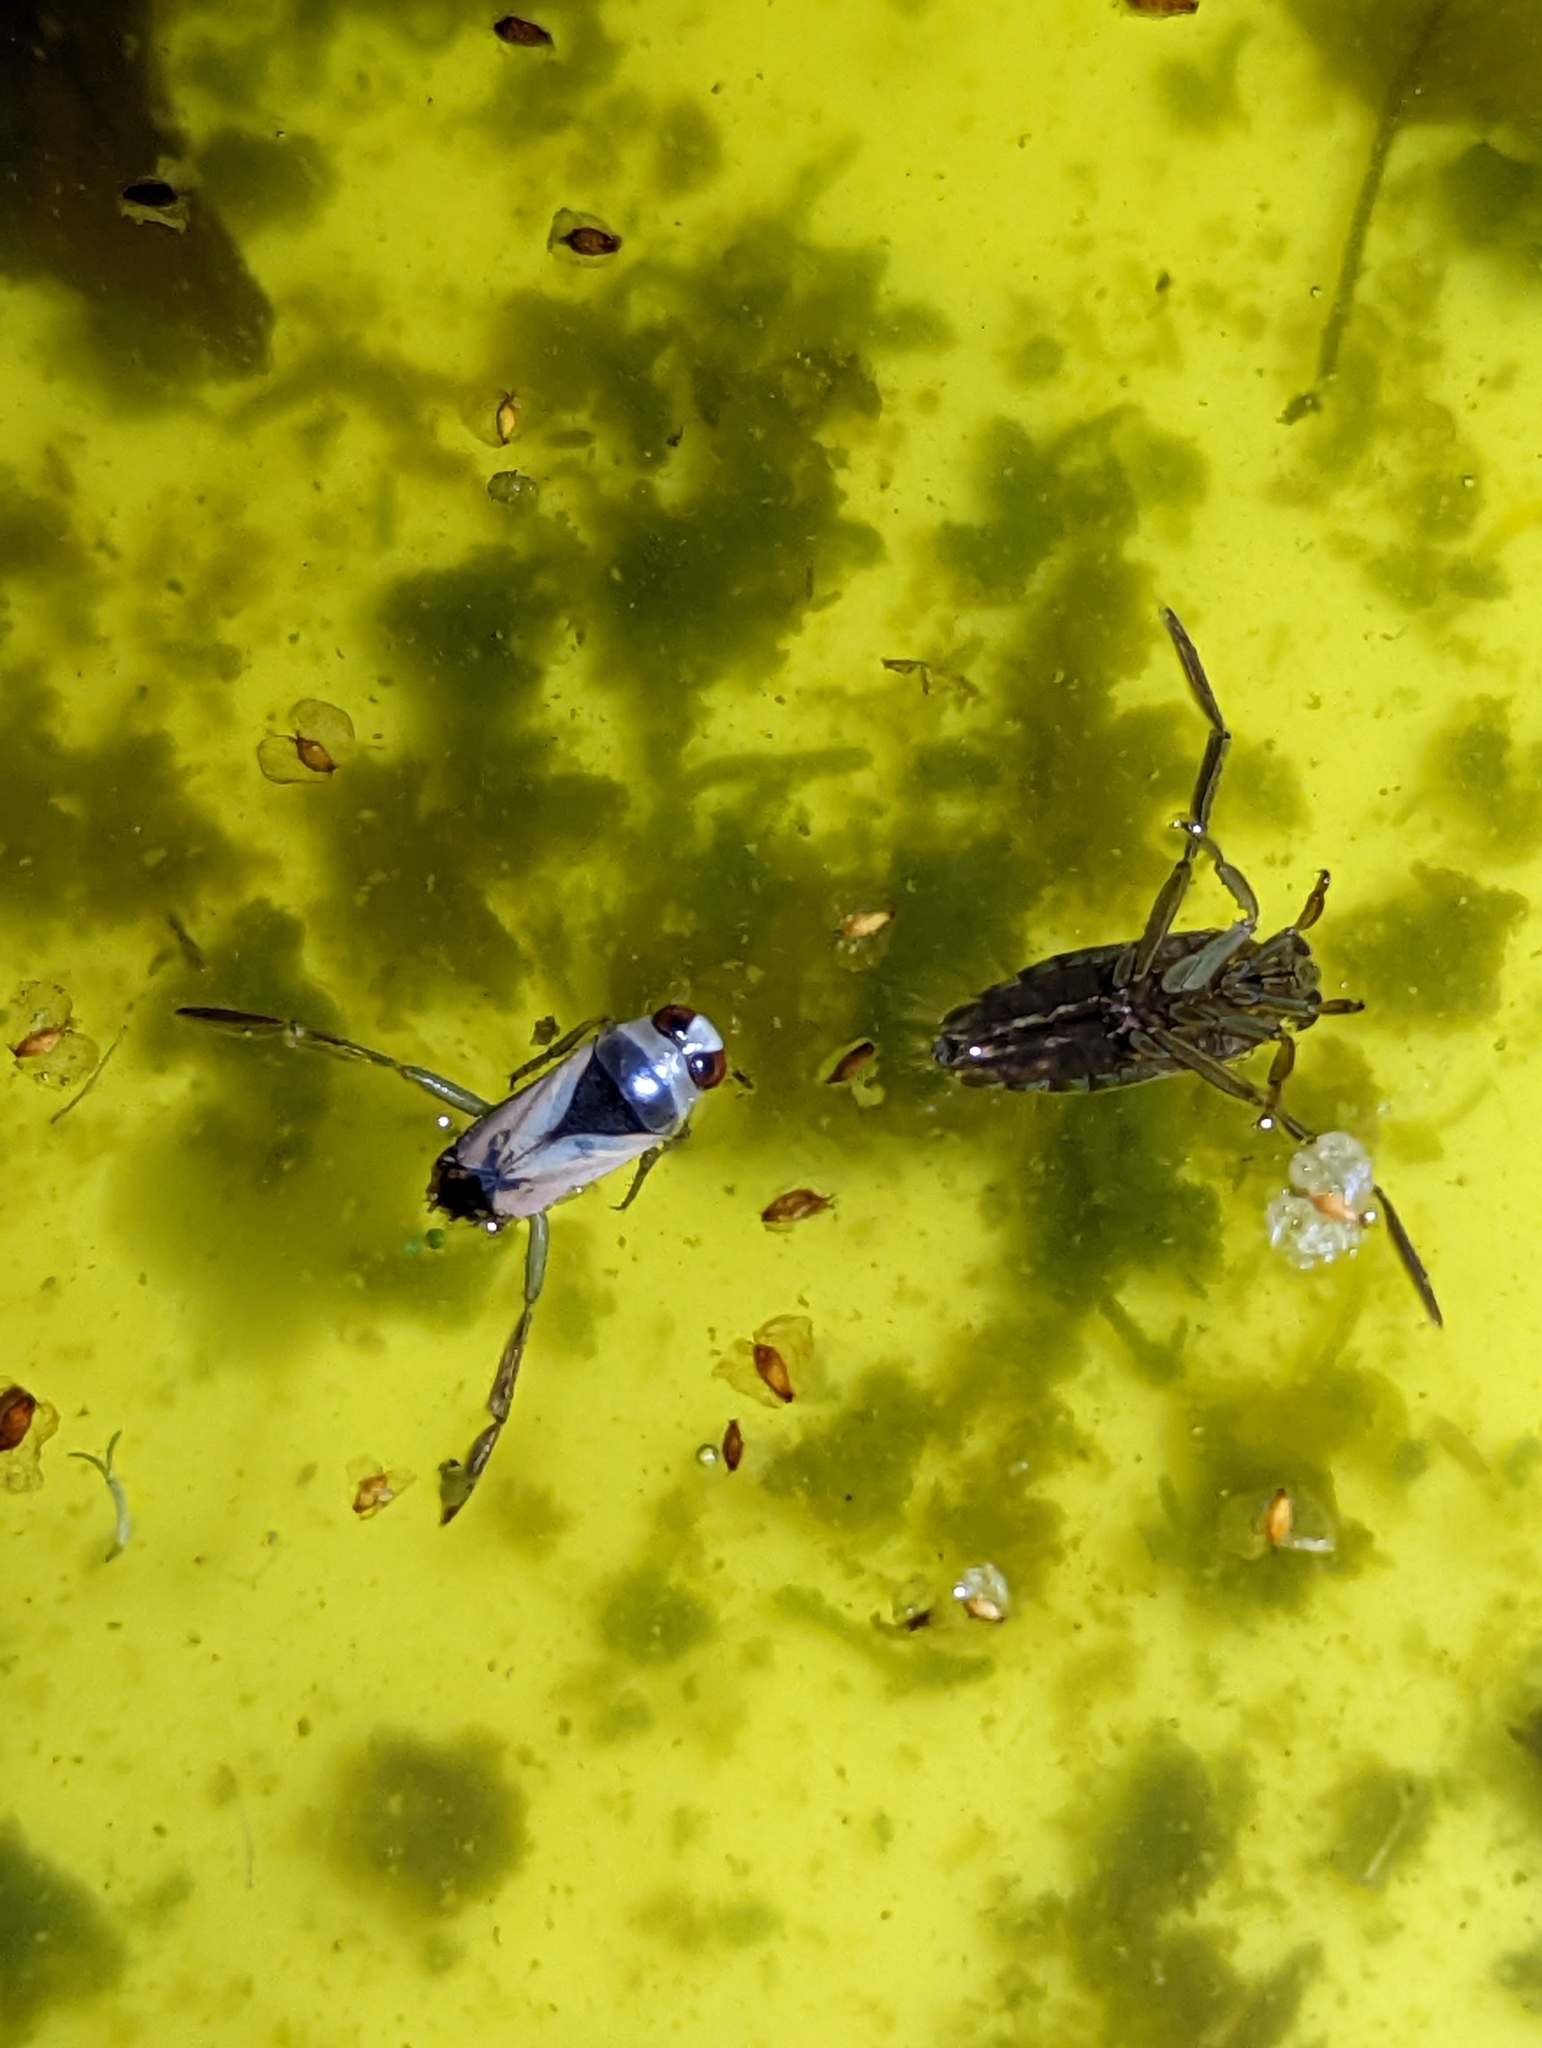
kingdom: Animalia
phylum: Arthropoda
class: Insecta
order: Hemiptera
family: Notonectidae
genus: Notonecta
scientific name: Notonecta viridis
